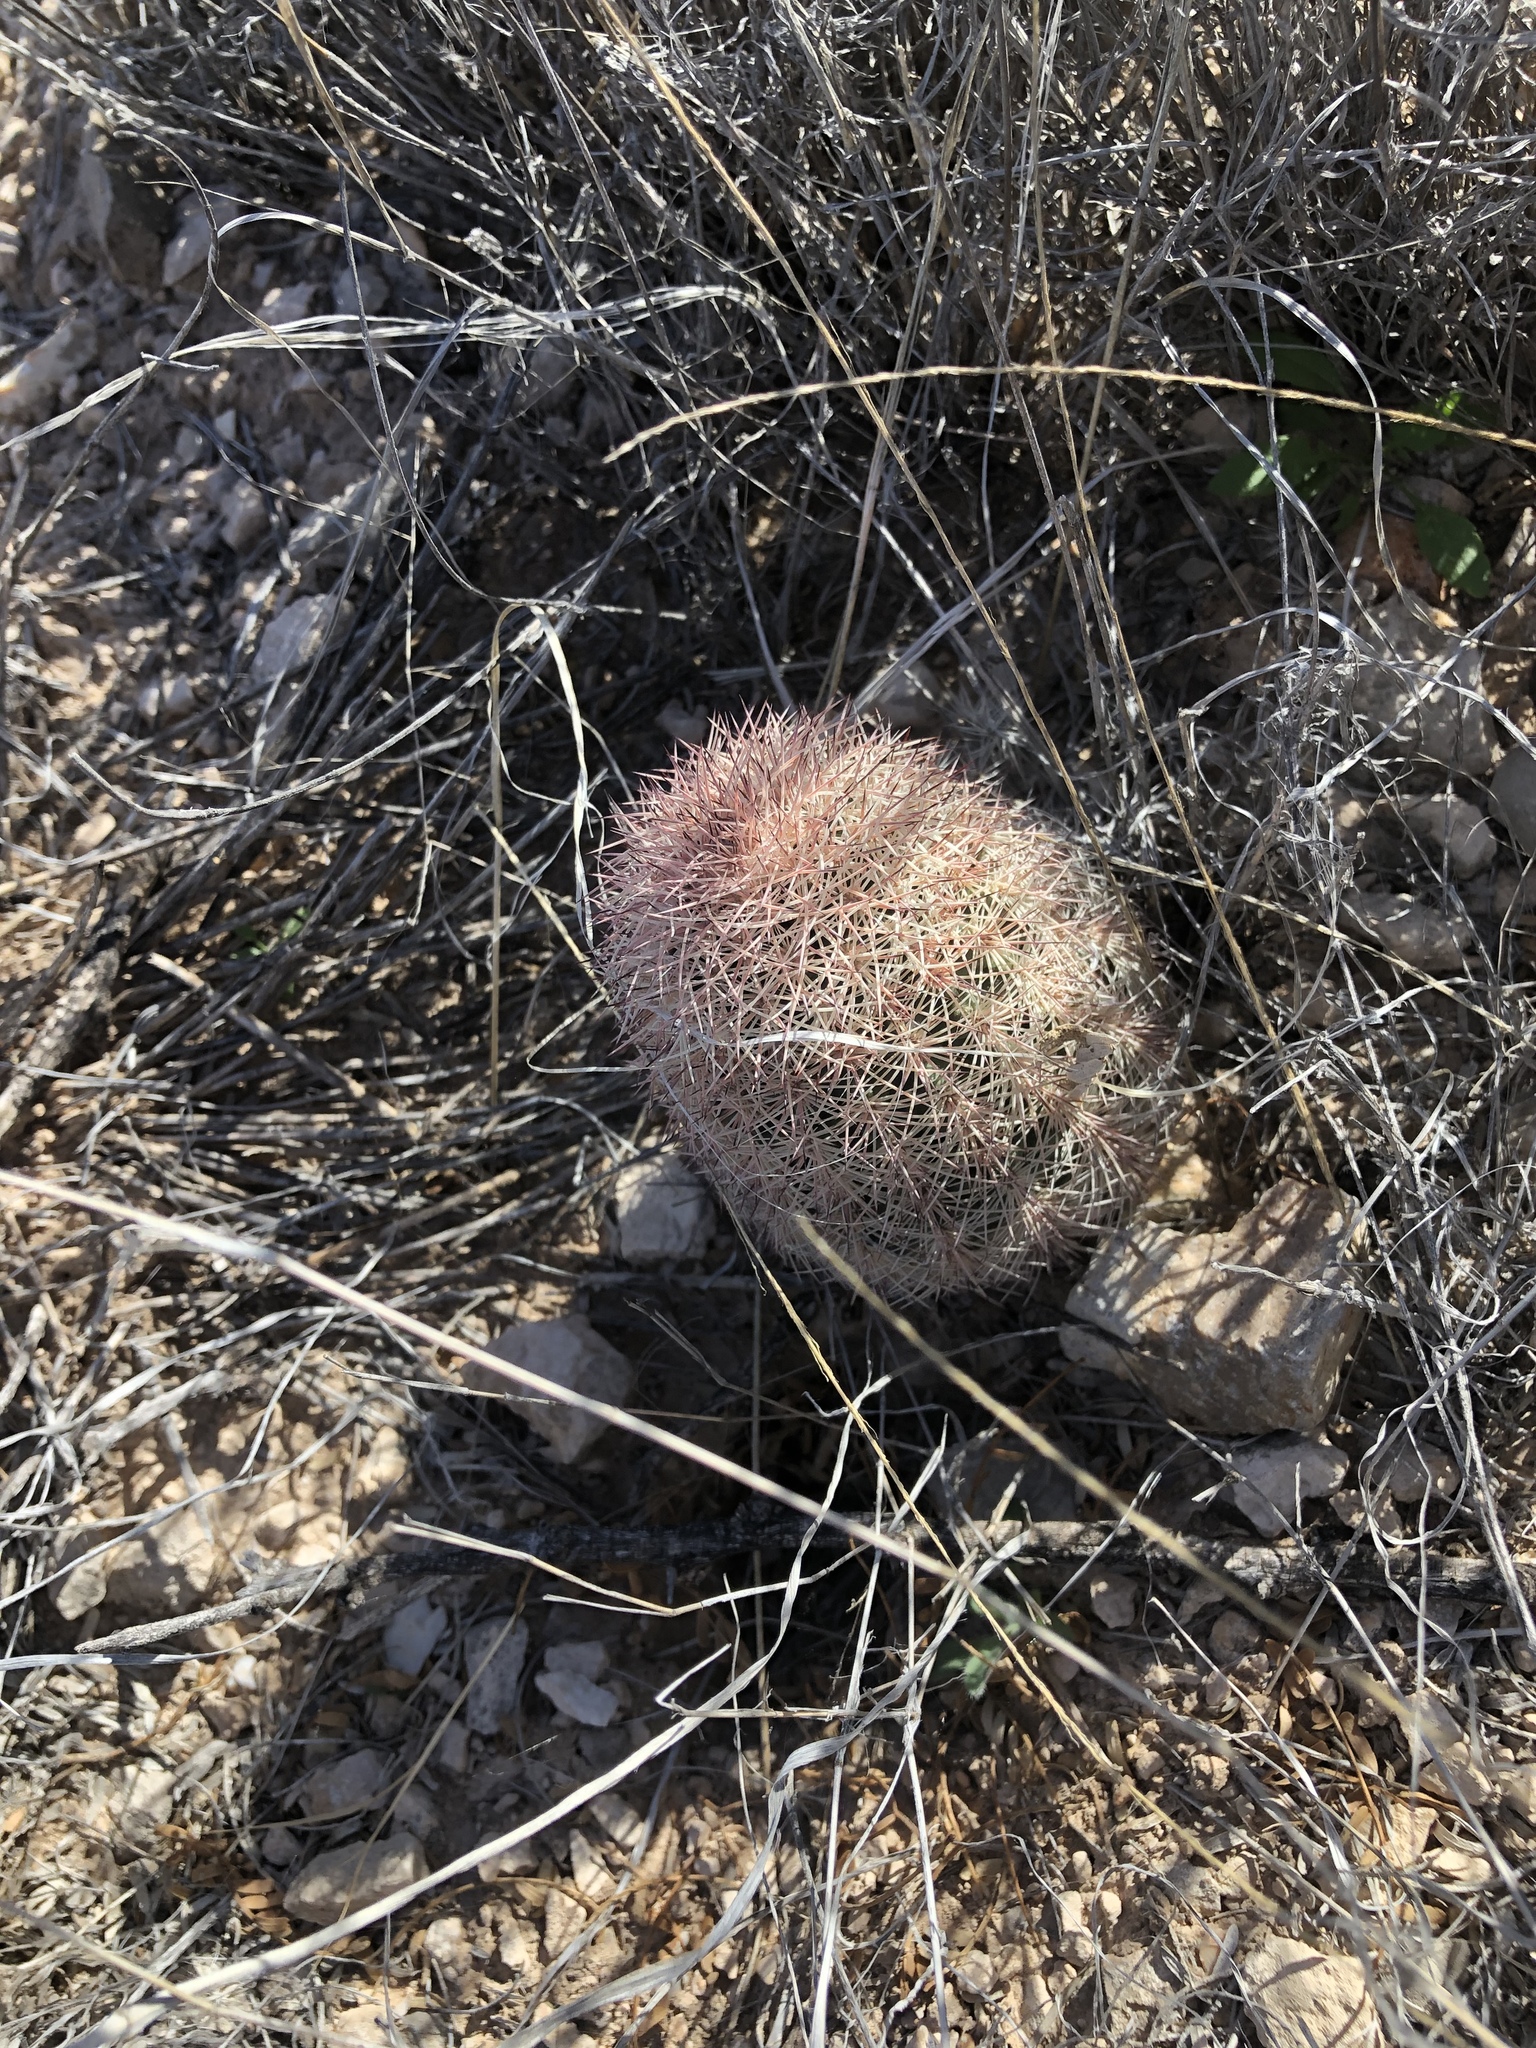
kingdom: Plantae
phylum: Tracheophyta
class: Magnoliopsida
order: Caryophyllales
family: Cactaceae
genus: Echinocereus
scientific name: Echinocereus dasyacanthus
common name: Spiny hedgehog cactus
